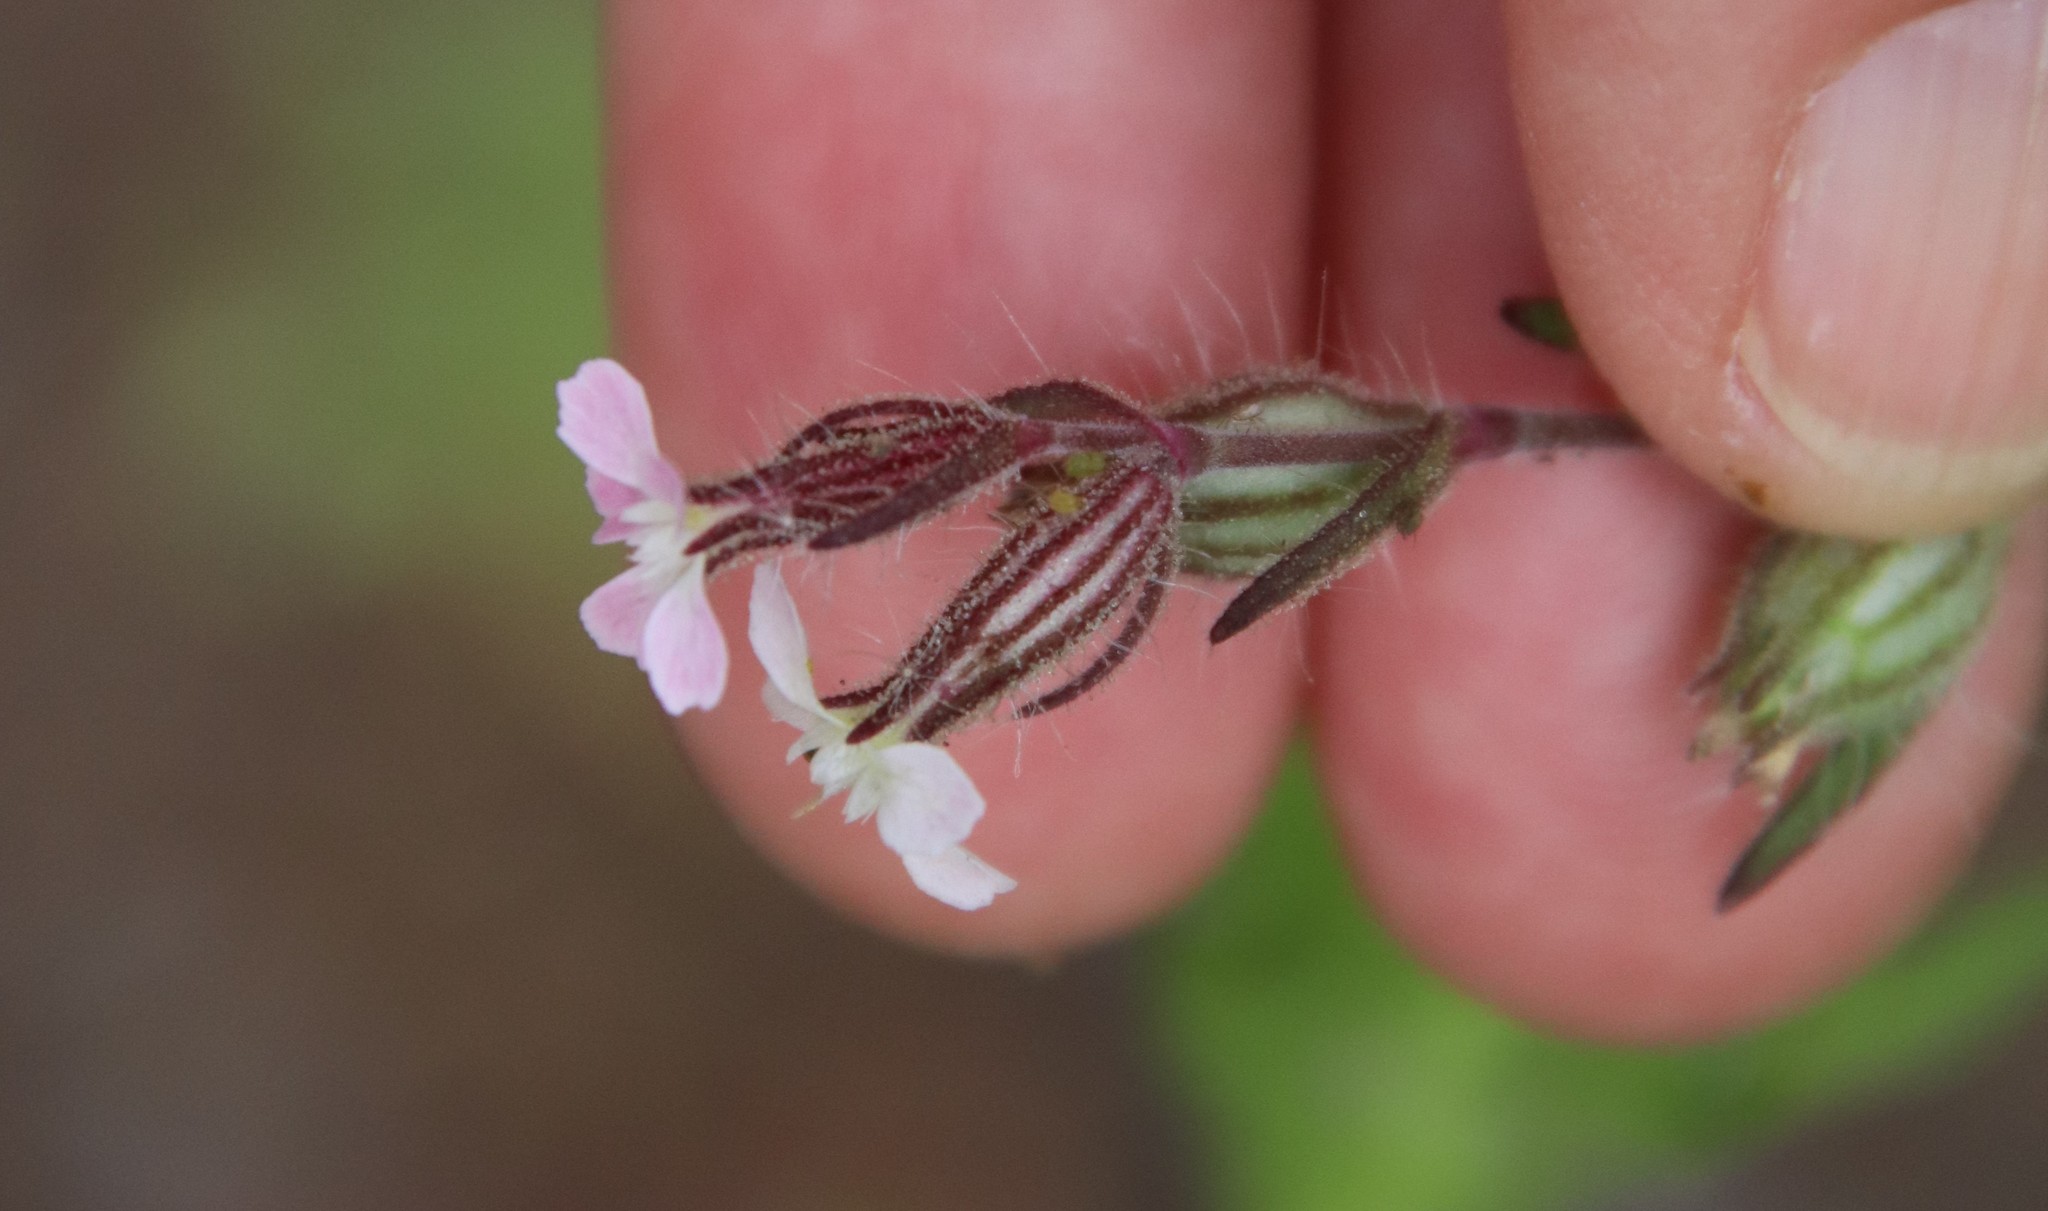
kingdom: Plantae
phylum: Tracheophyta
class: Magnoliopsida
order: Caryophyllales
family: Caryophyllaceae
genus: Silene
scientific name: Silene gallica
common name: Small-flowered catchfly
